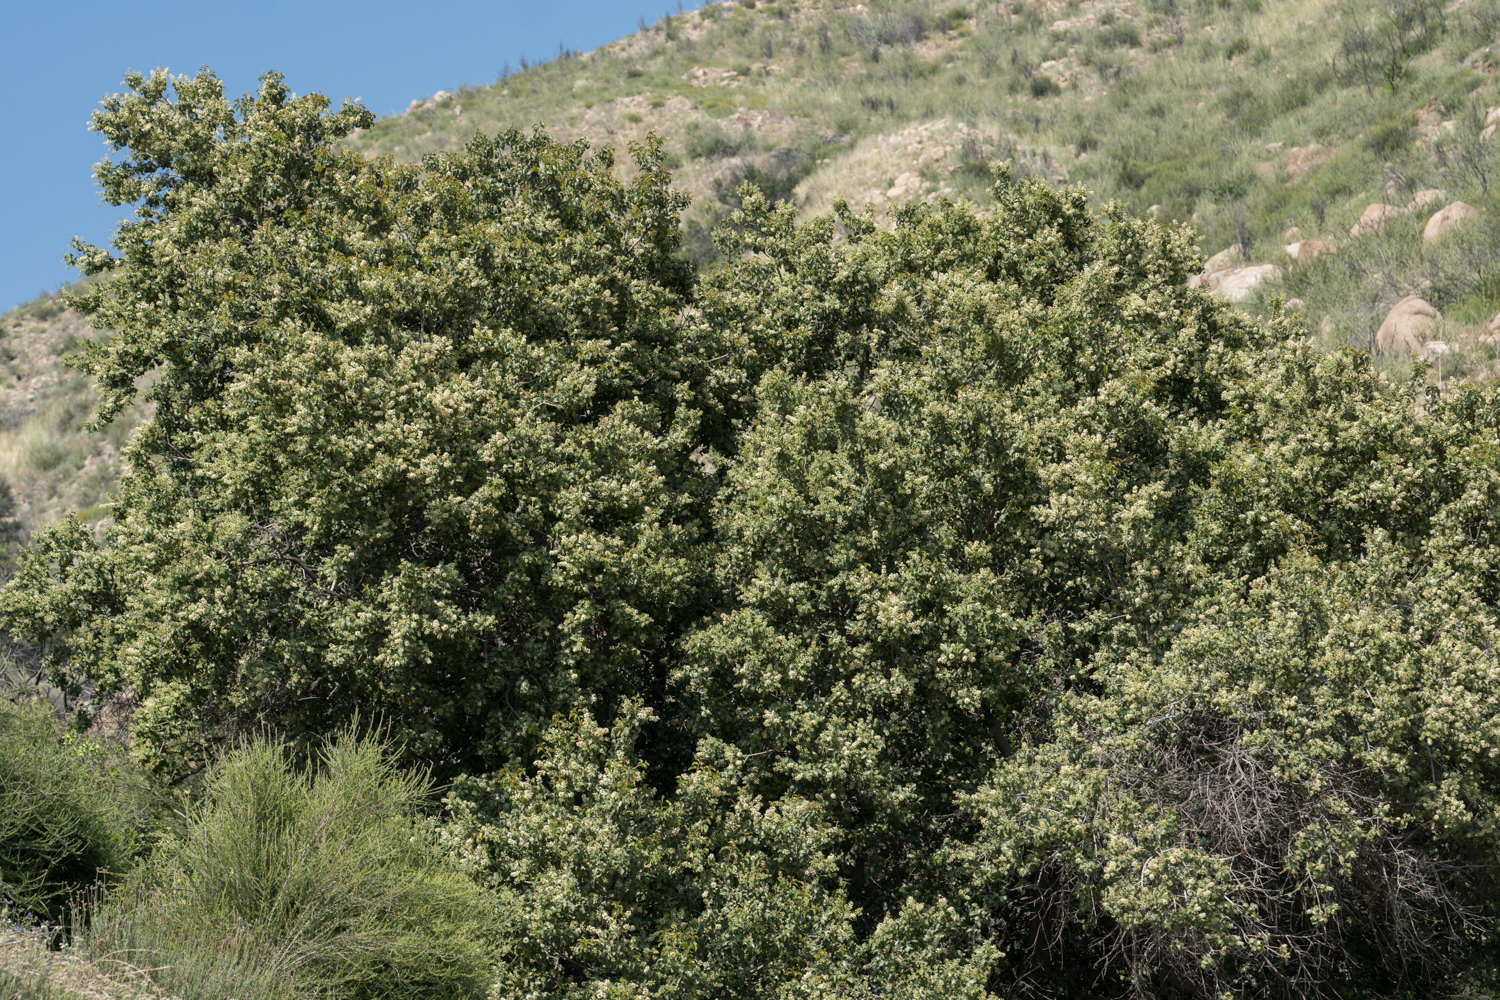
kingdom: Plantae
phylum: Tracheophyta
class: Magnoliopsida
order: Rosales
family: Rosaceae
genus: Prunus
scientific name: Prunus ilicifolia
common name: Hollyleaf cherry
